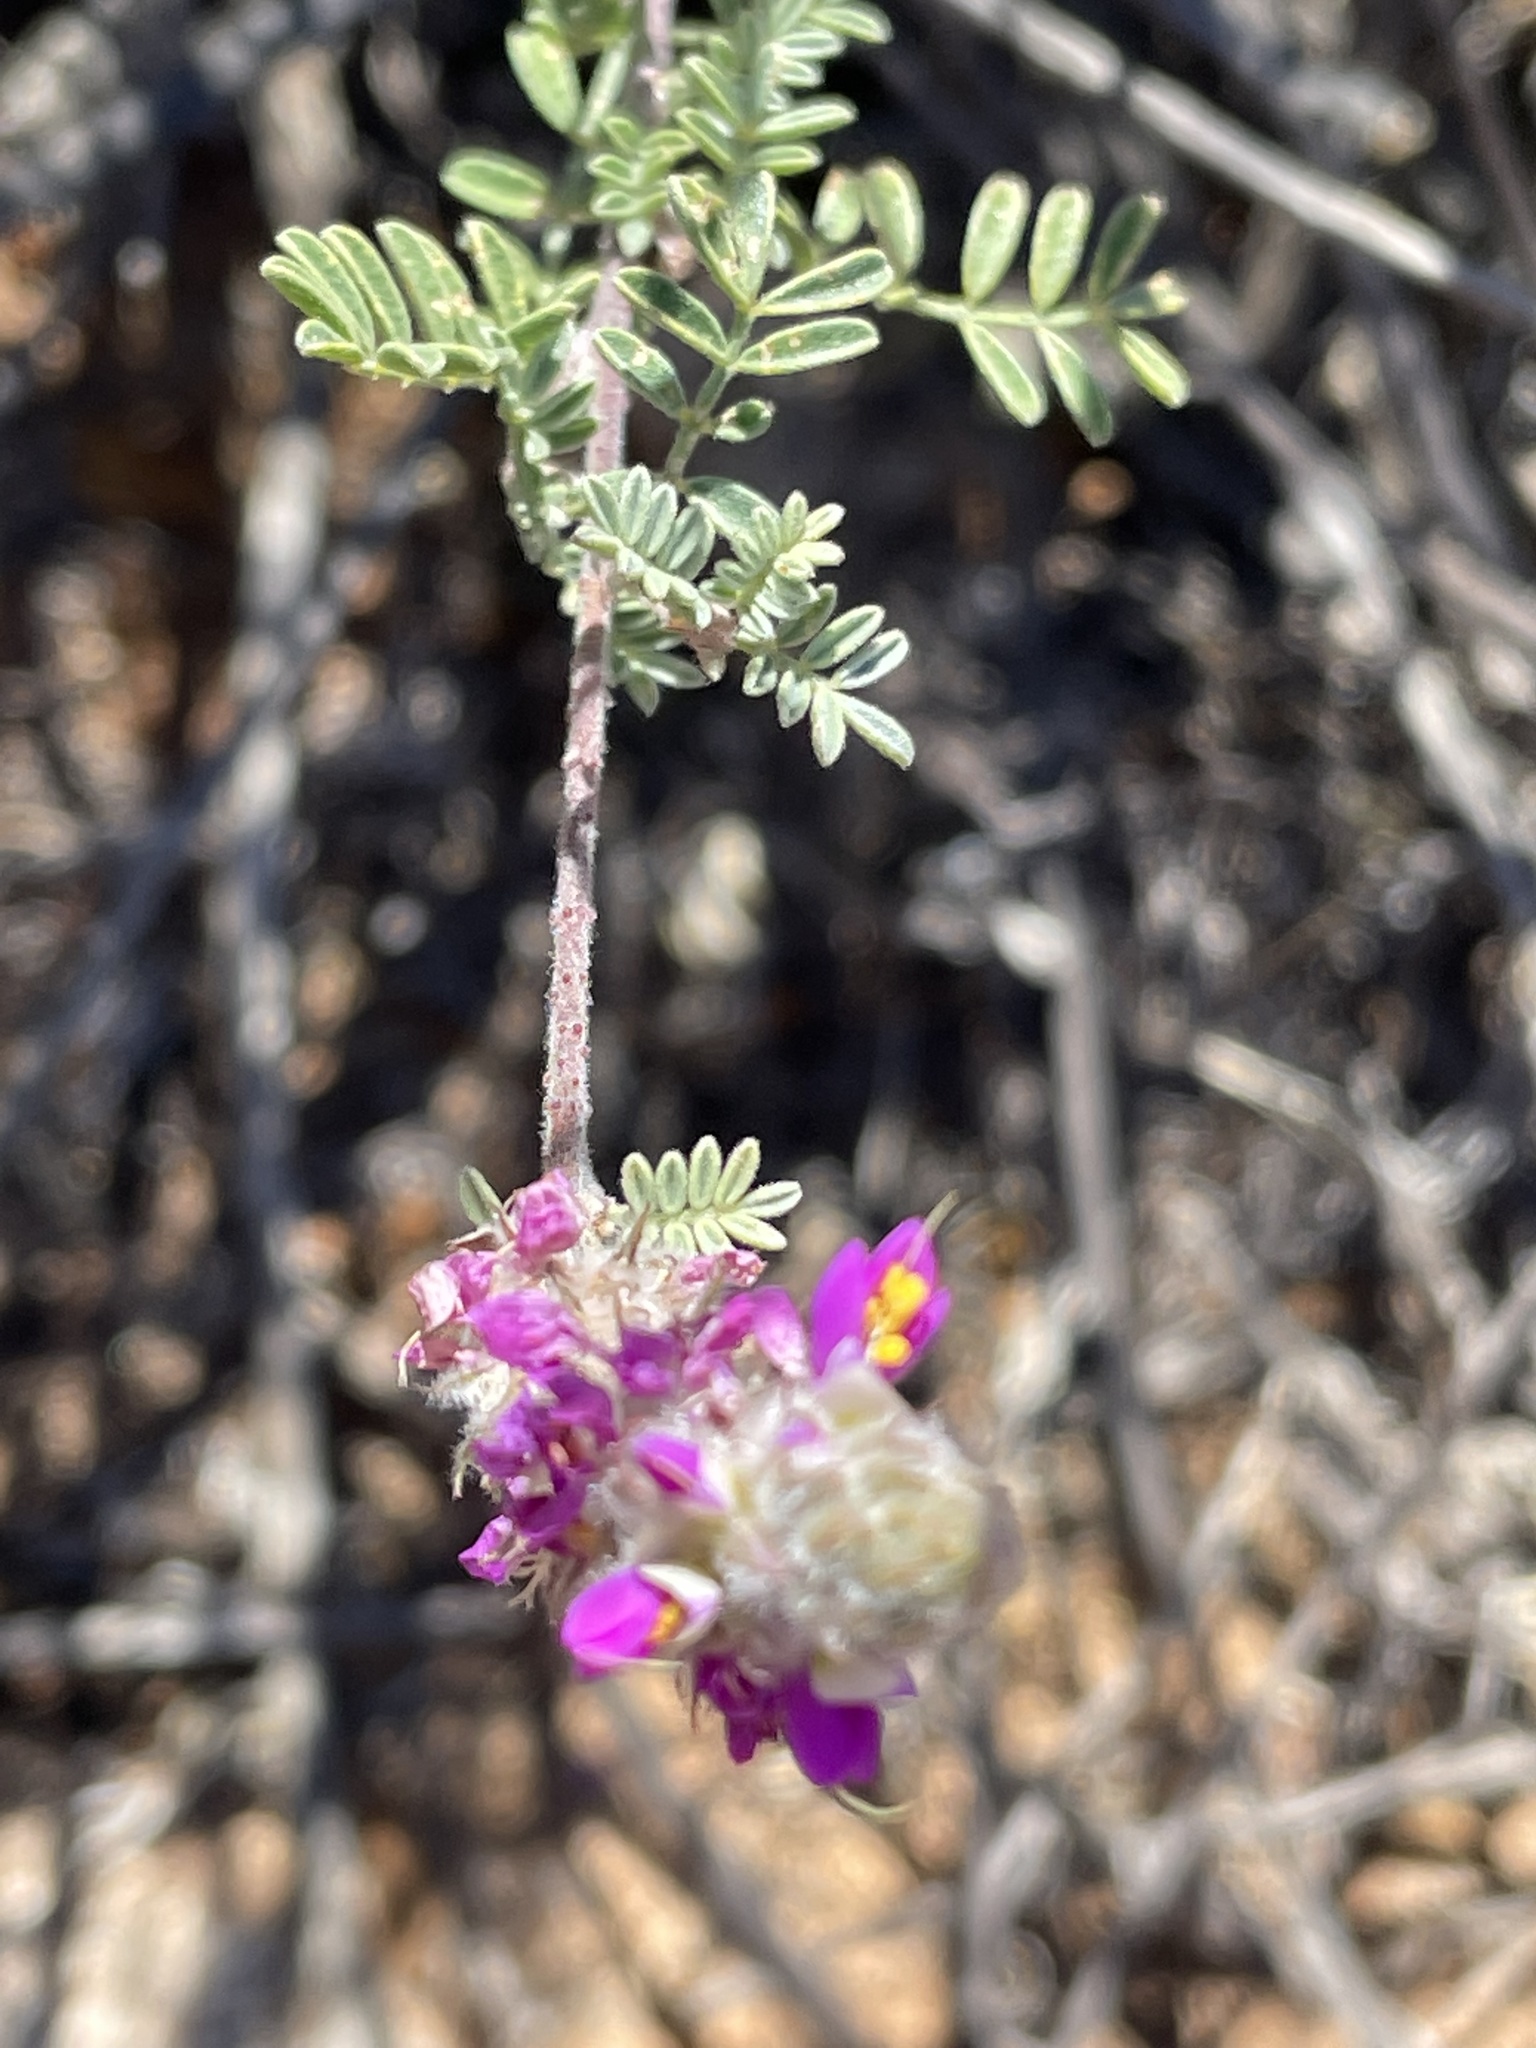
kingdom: Plantae
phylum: Tracheophyta
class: Magnoliopsida
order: Fabales
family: Fabaceae
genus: Dalea
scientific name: Dalea bicolor
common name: Silver prairie-clover
